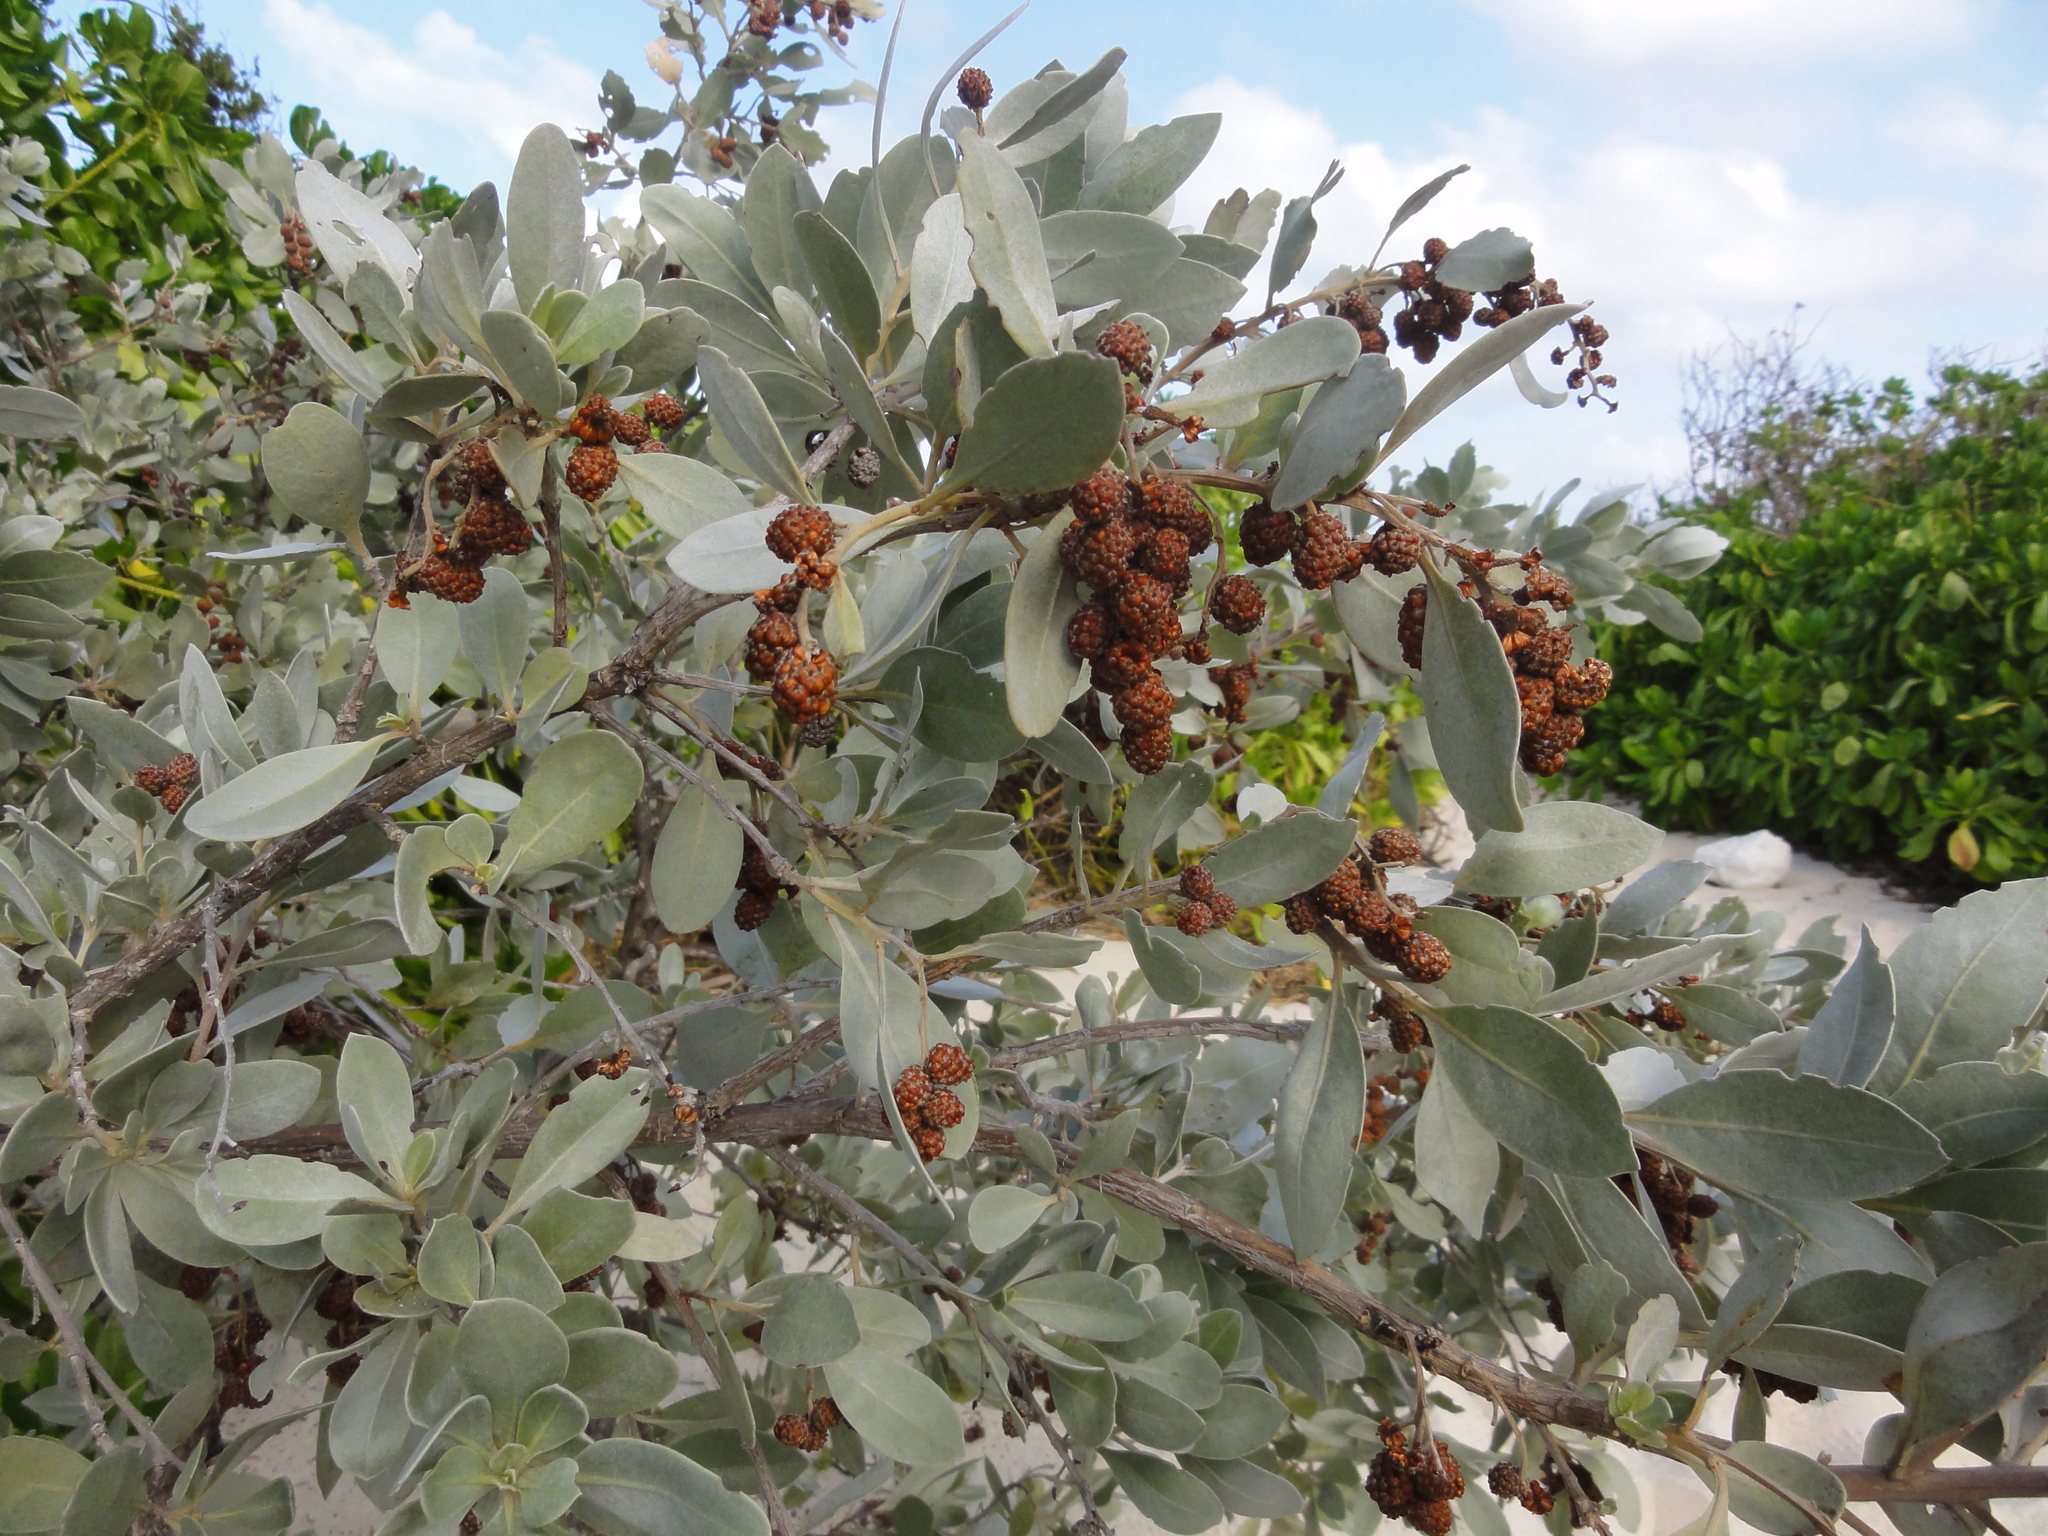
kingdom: Plantae
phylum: Tracheophyta
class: Magnoliopsida
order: Myrtales
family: Combretaceae
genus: Conocarpus
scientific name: Conocarpus erectus
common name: Button mangrove
